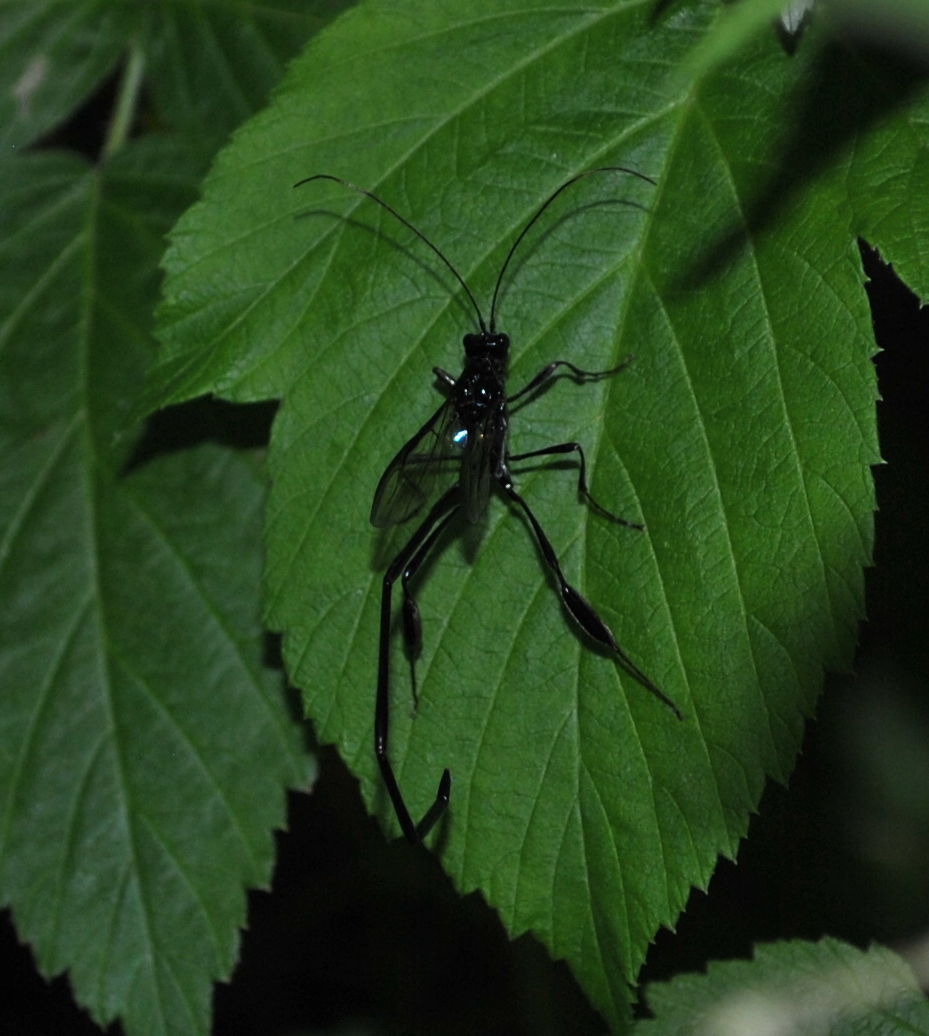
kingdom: Animalia
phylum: Arthropoda
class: Insecta
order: Hymenoptera
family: Pelecinidae
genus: Pelecinus
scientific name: Pelecinus polyturator
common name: American pelecinid wasp
